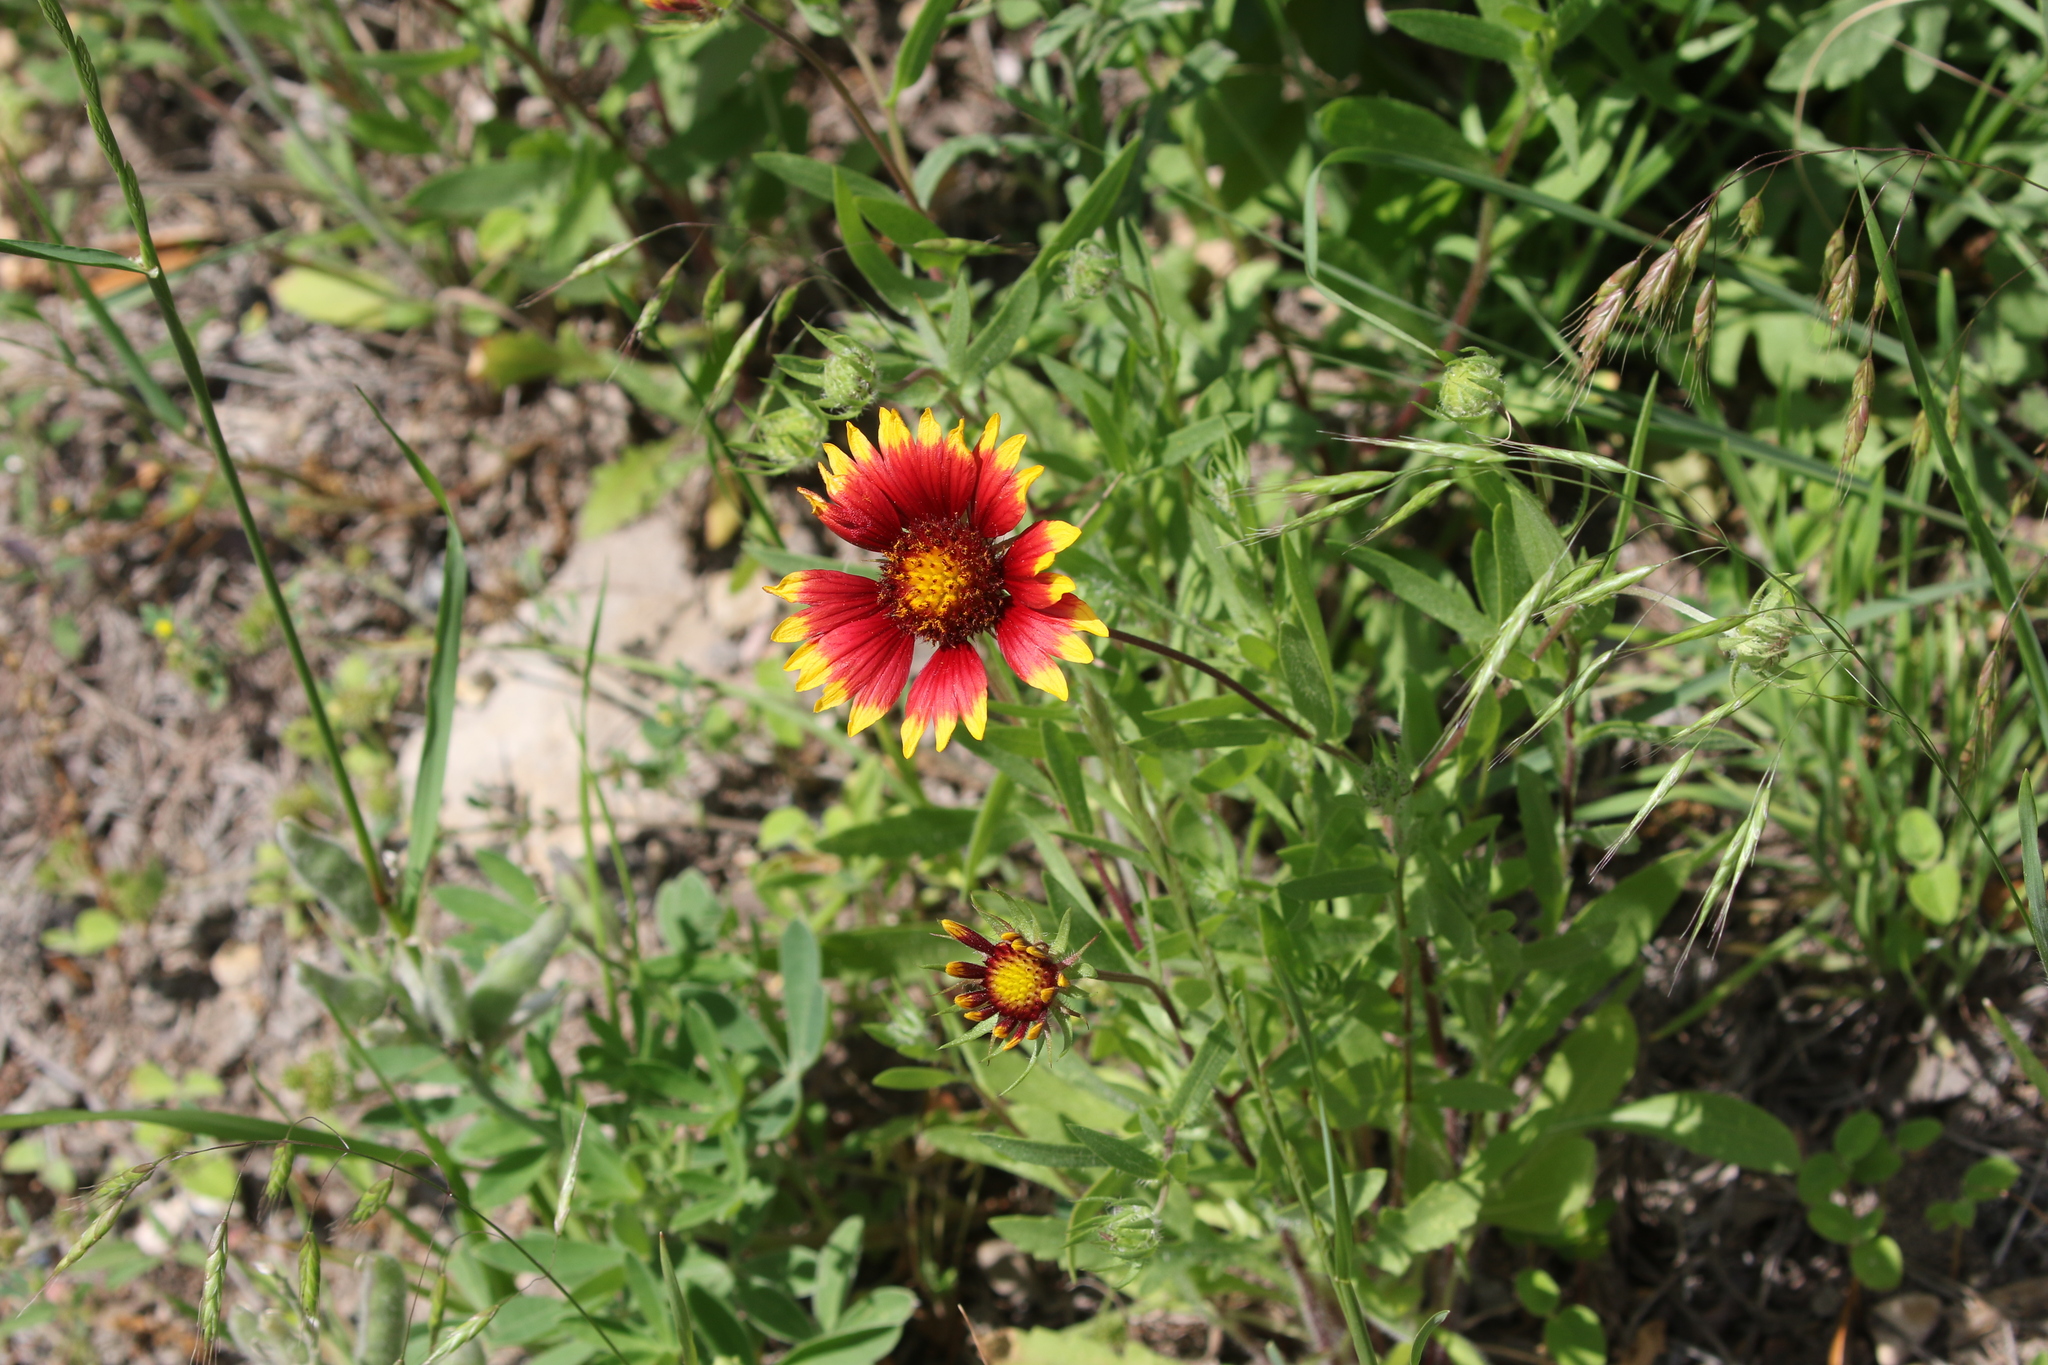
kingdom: Plantae
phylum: Tracheophyta
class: Magnoliopsida
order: Asterales
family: Asteraceae
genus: Gaillardia
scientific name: Gaillardia pulchella
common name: Firewheel
